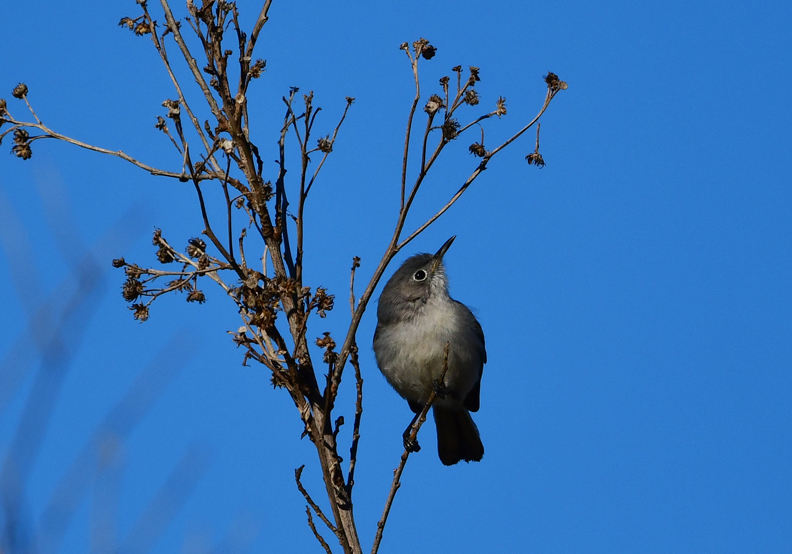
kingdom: Animalia
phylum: Chordata
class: Aves
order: Passeriformes
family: Polioptilidae
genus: Polioptila
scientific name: Polioptila caerulea
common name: Blue-gray gnatcatcher
